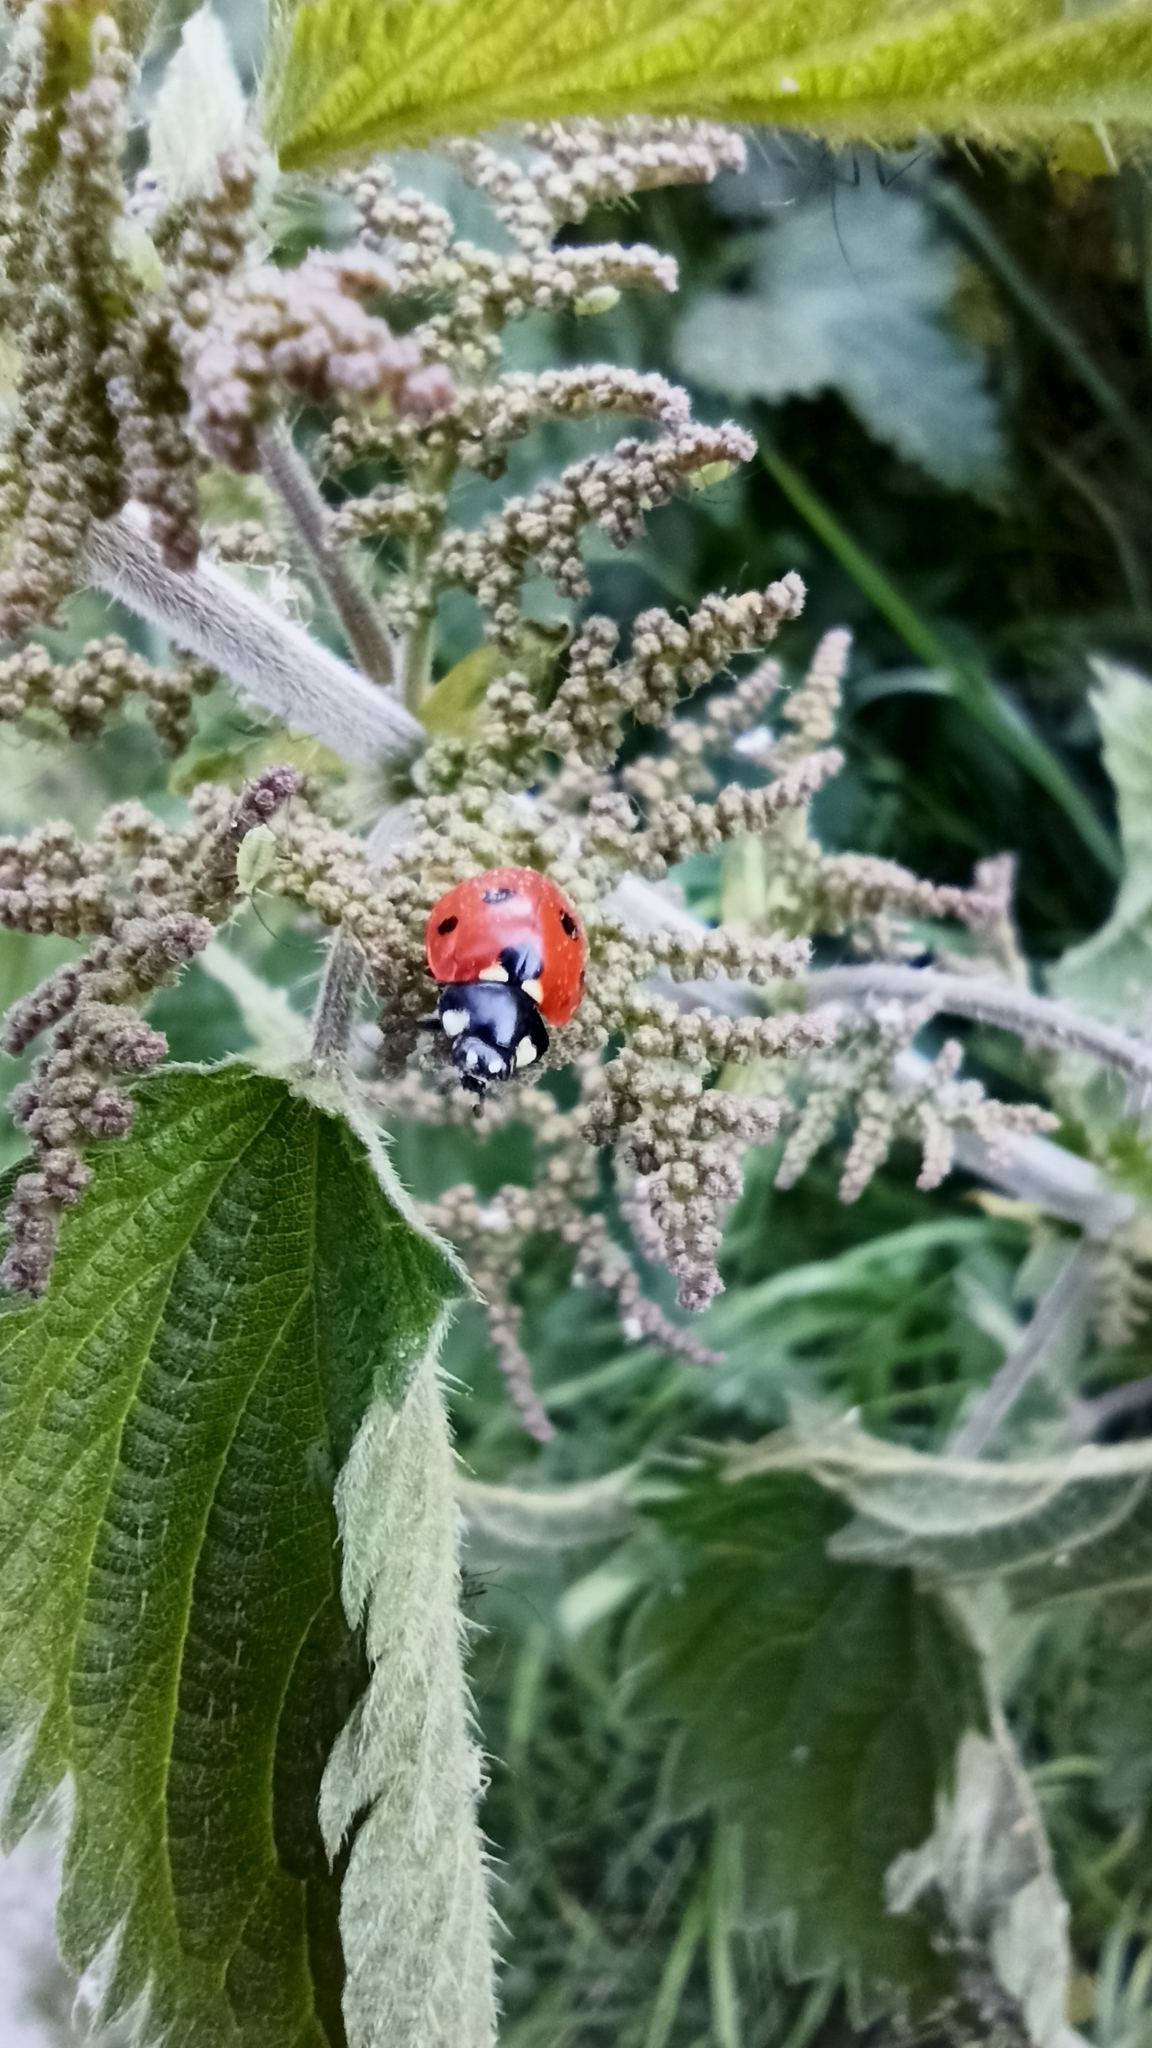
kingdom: Animalia
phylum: Arthropoda
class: Insecta
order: Coleoptera
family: Coccinellidae
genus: Coccinella
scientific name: Coccinella septempunctata
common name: Sevenspotted lady beetle
